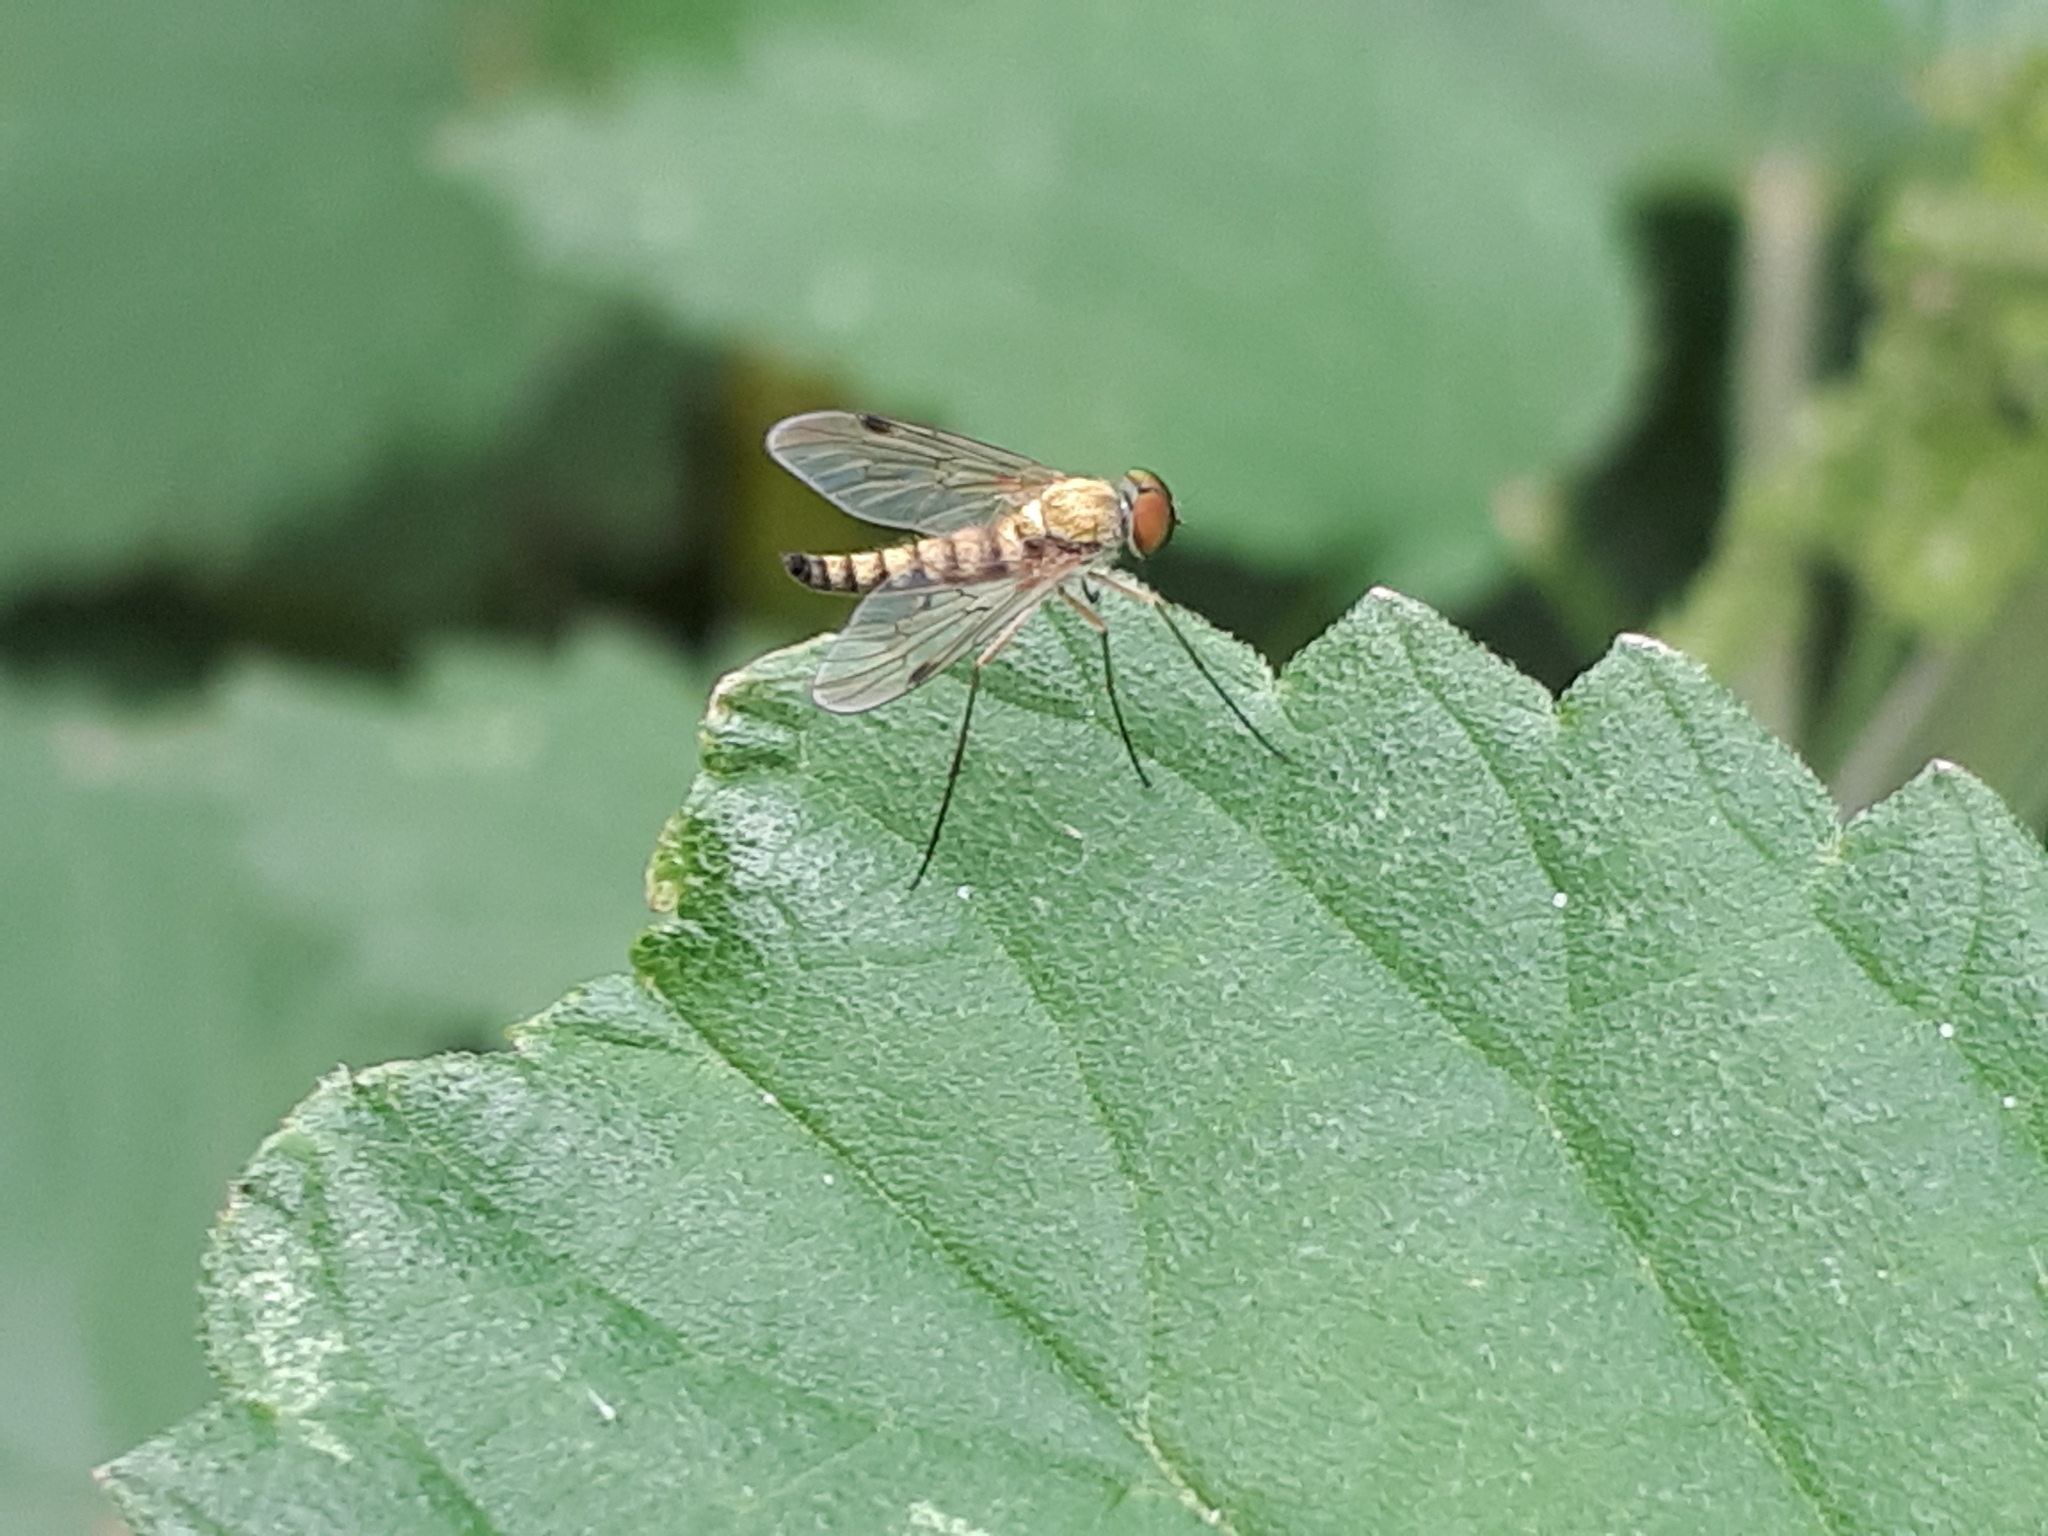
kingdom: Animalia
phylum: Arthropoda
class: Insecta
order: Diptera
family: Rhagionidae
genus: Chrysopilus
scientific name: Chrysopilus asiliformis
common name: Little snipefly
